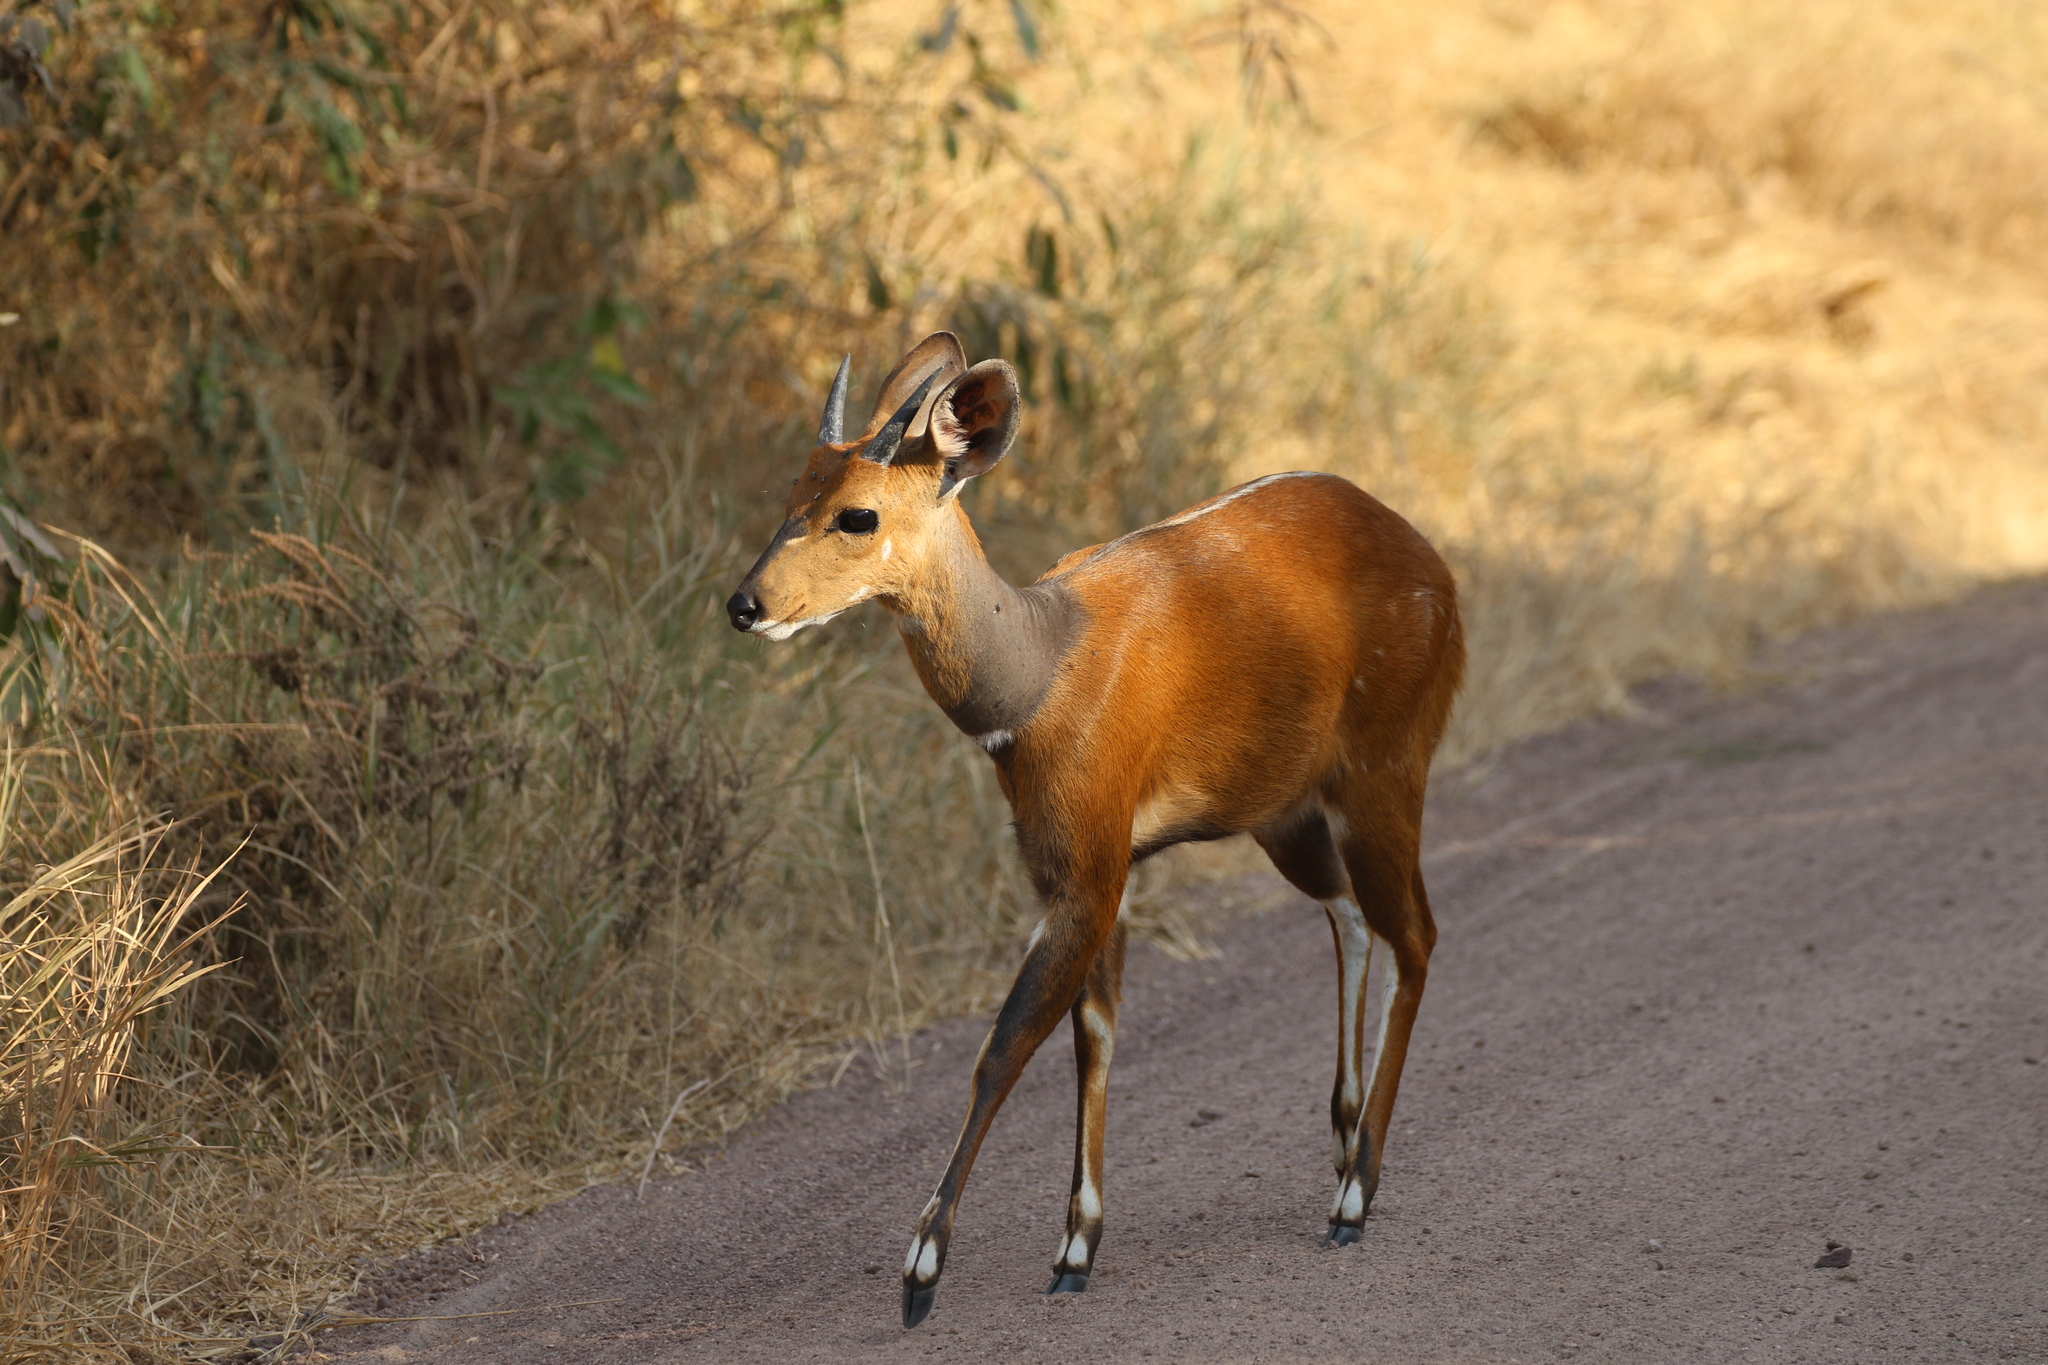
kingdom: Animalia
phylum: Chordata
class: Mammalia
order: Artiodactyla
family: Bovidae
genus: Tragelaphus
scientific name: Tragelaphus scriptus
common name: Bushbuck
